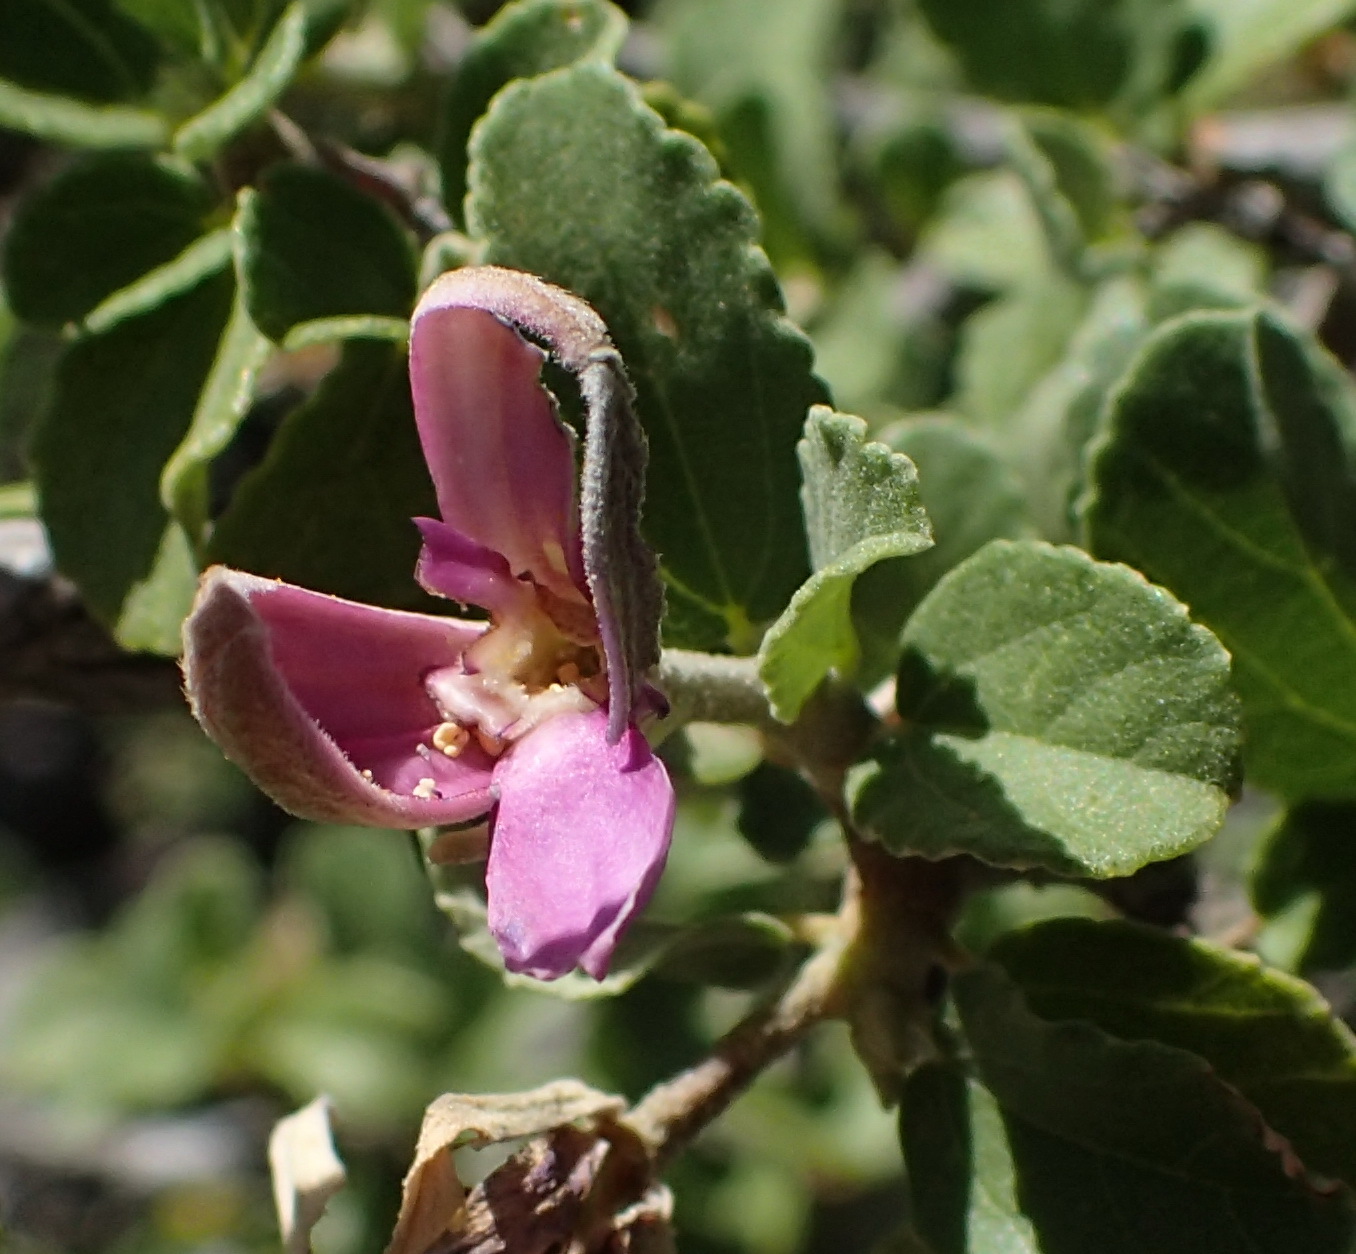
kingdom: Plantae
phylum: Tracheophyta
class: Magnoliopsida
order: Malvales
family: Malvaceae
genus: Grewia
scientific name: Grewia robusta
